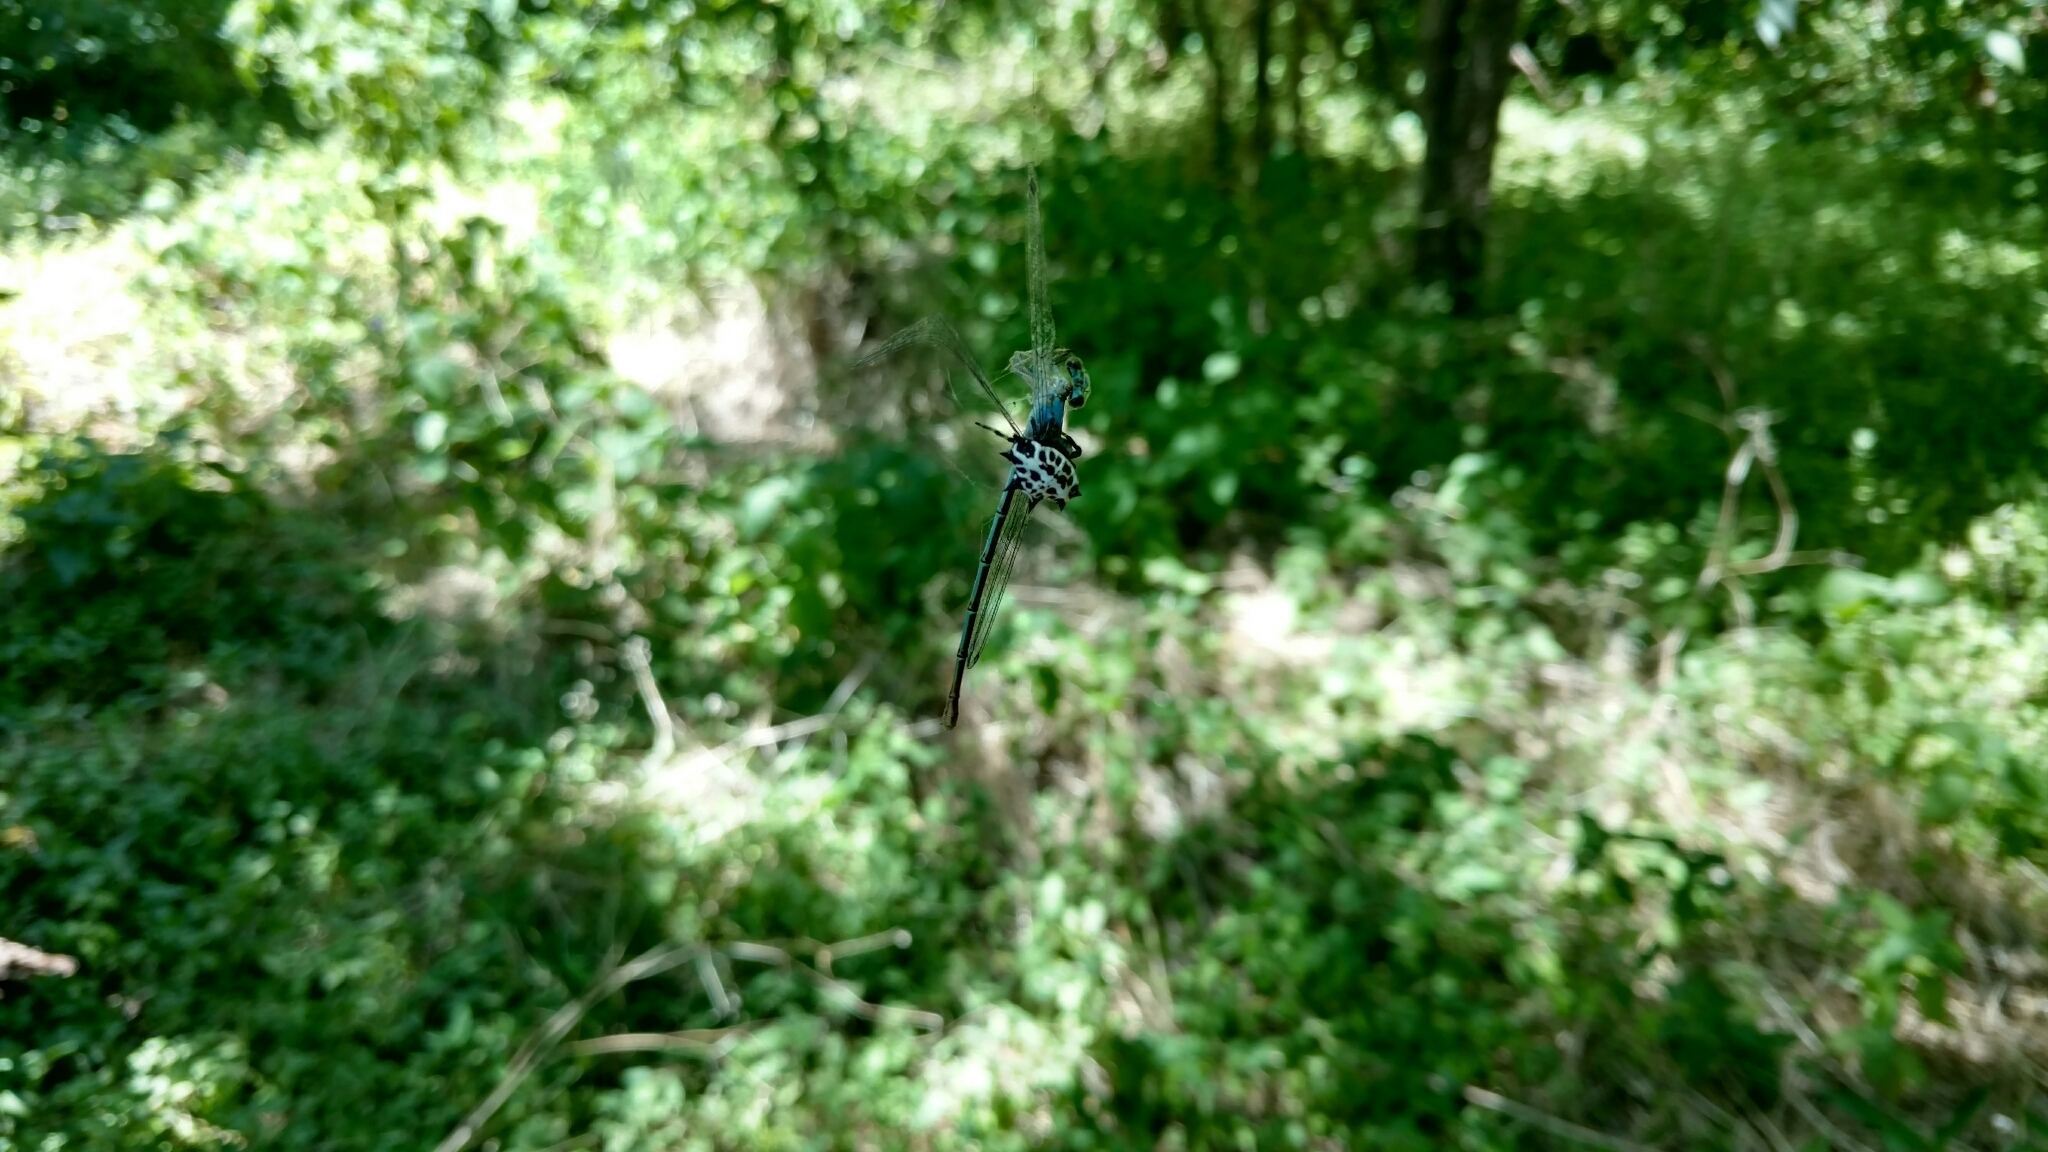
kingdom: Animalia
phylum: Arthropoda
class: Arachnida
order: Araneae
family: Araneidae
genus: Gasteracantha
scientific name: Gasteracantha cancriformis
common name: Orb weavers
